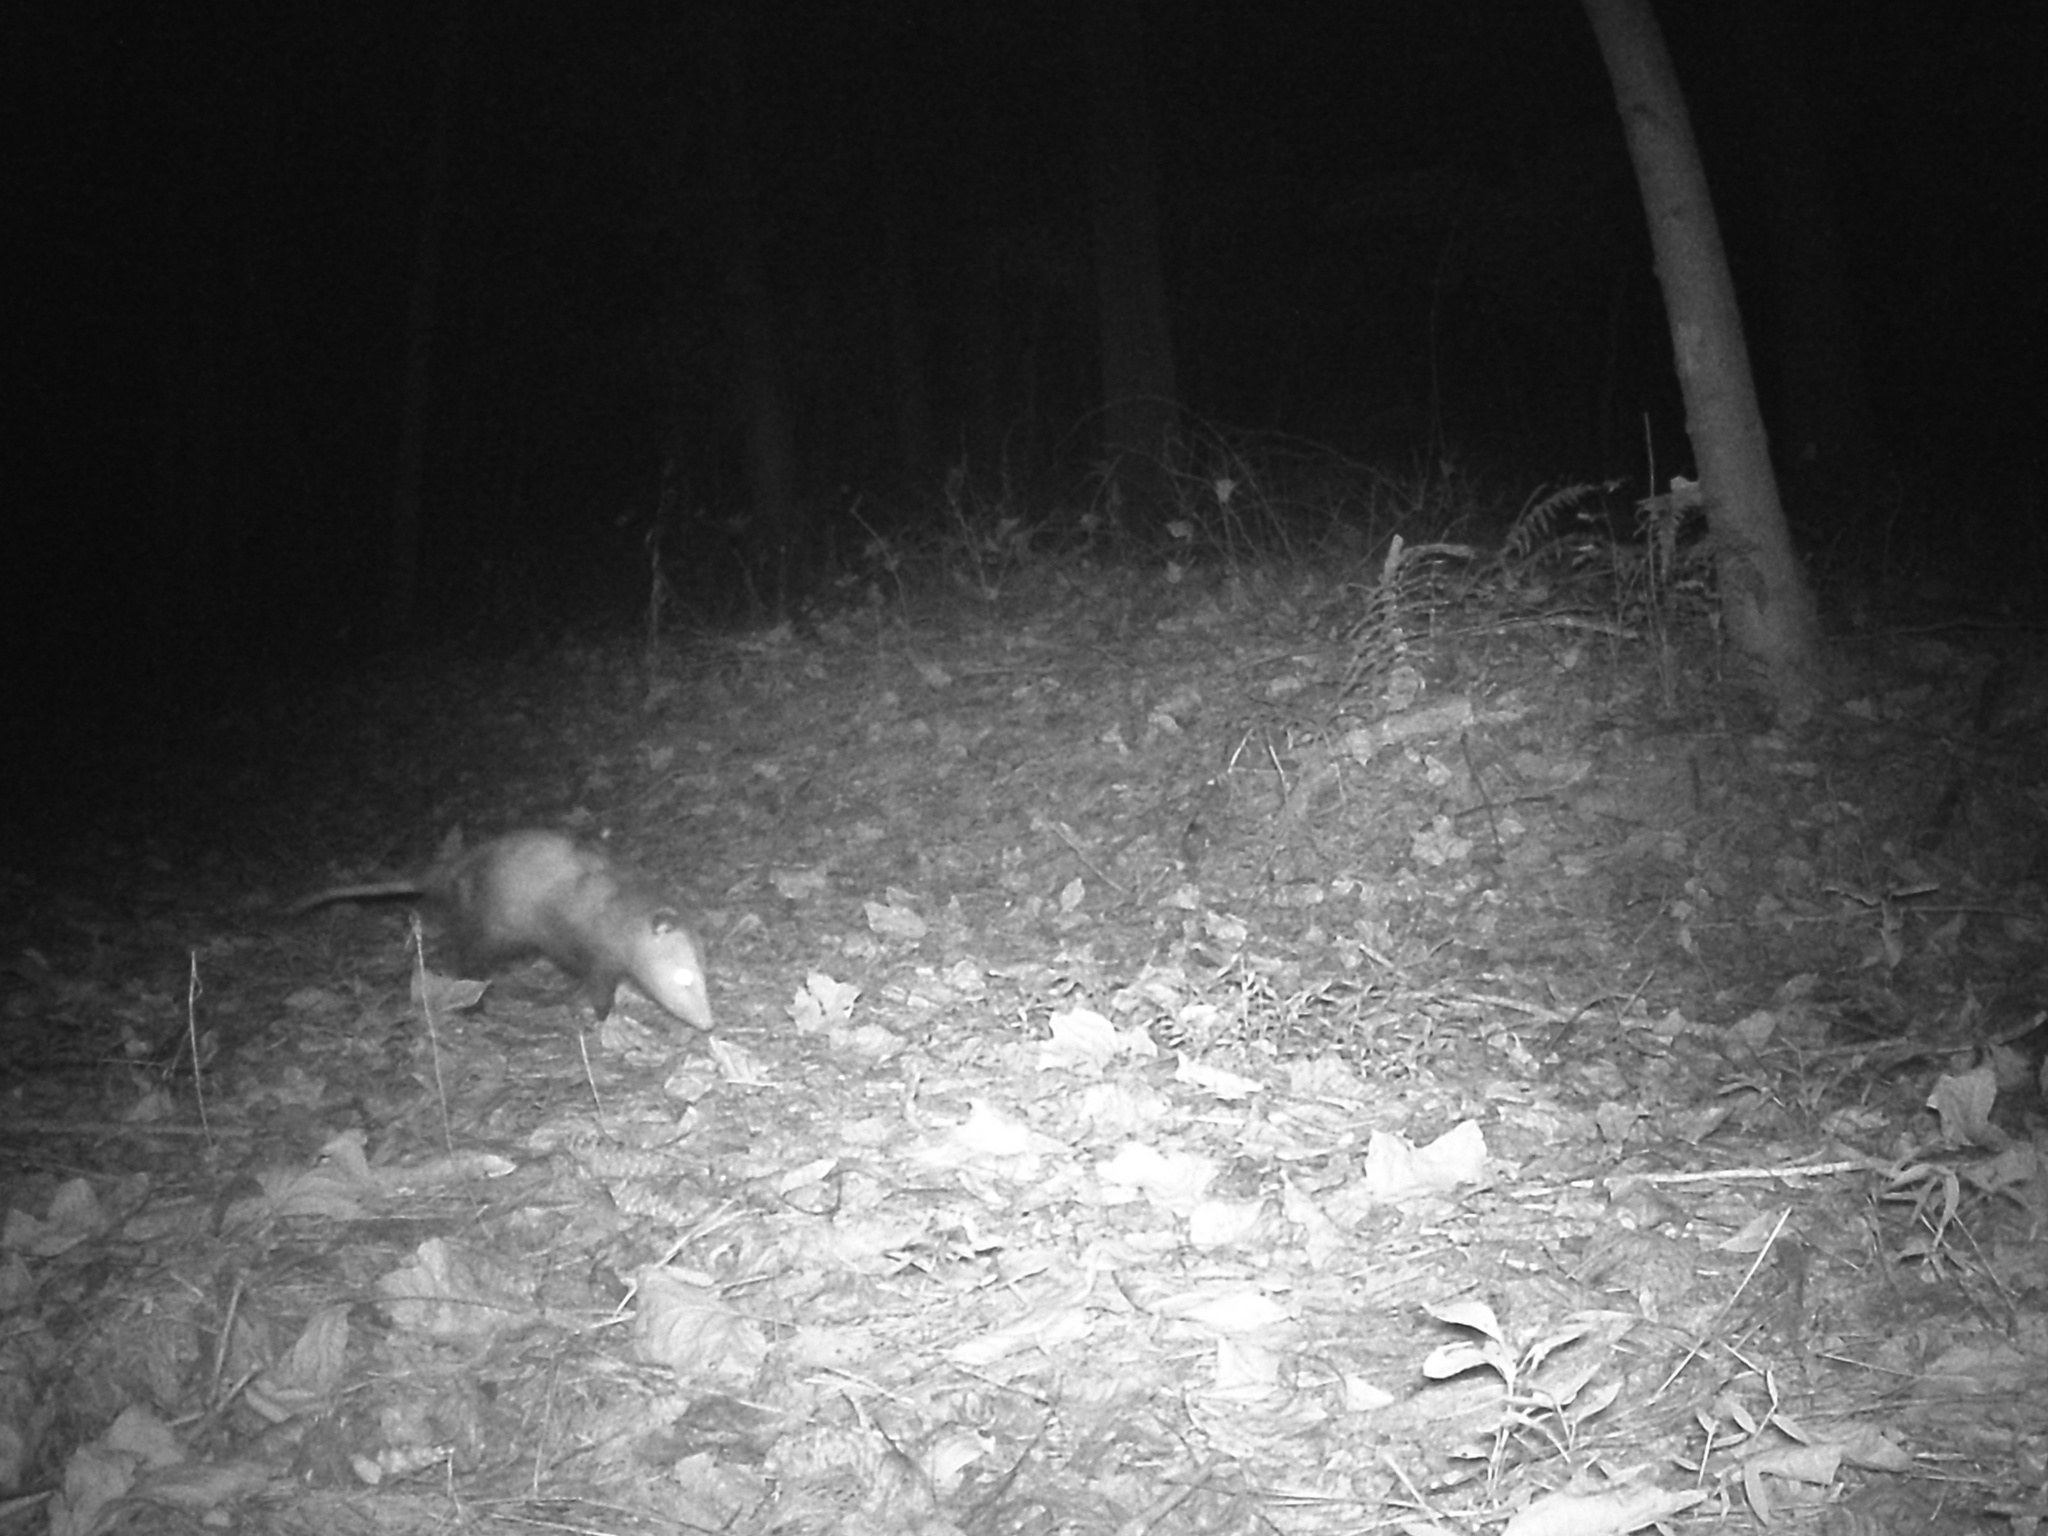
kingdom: Animalia
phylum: Chordata
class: Mammalia
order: Didelphimorphia
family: Didelphidae
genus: Didelphis
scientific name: Didelphis virginiana
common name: Virginia opossum
